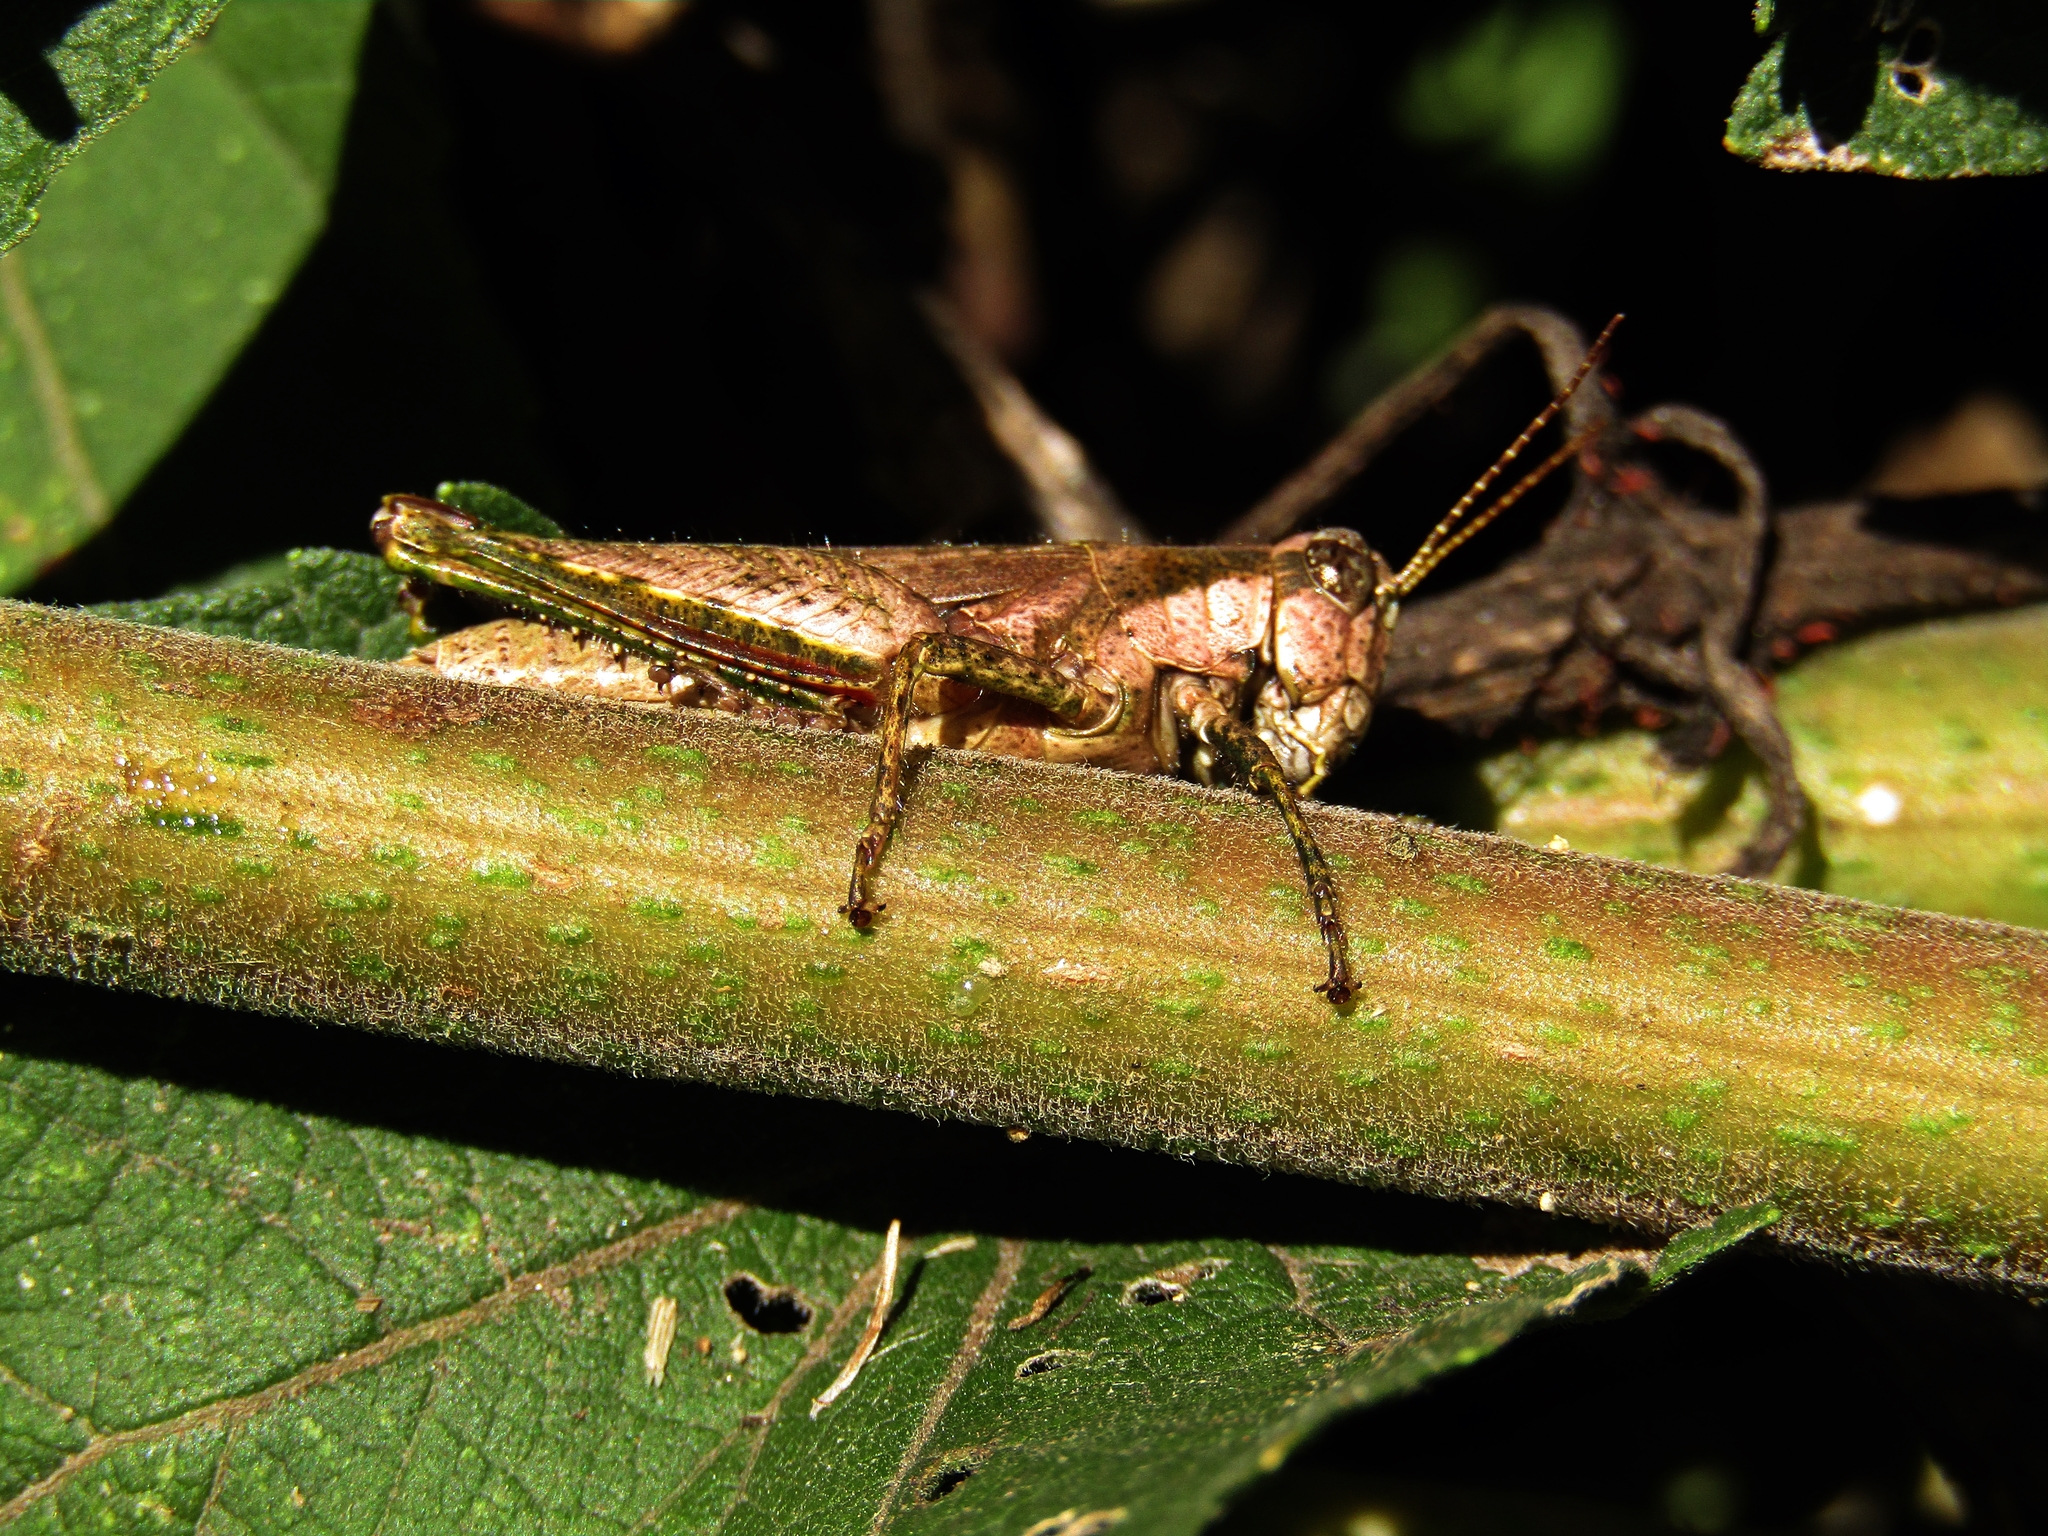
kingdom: Animalia
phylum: Arthropoda
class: Insecta
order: Orthoptera
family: Acrididae
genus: Ronderosia
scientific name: Ronderosia bergii
